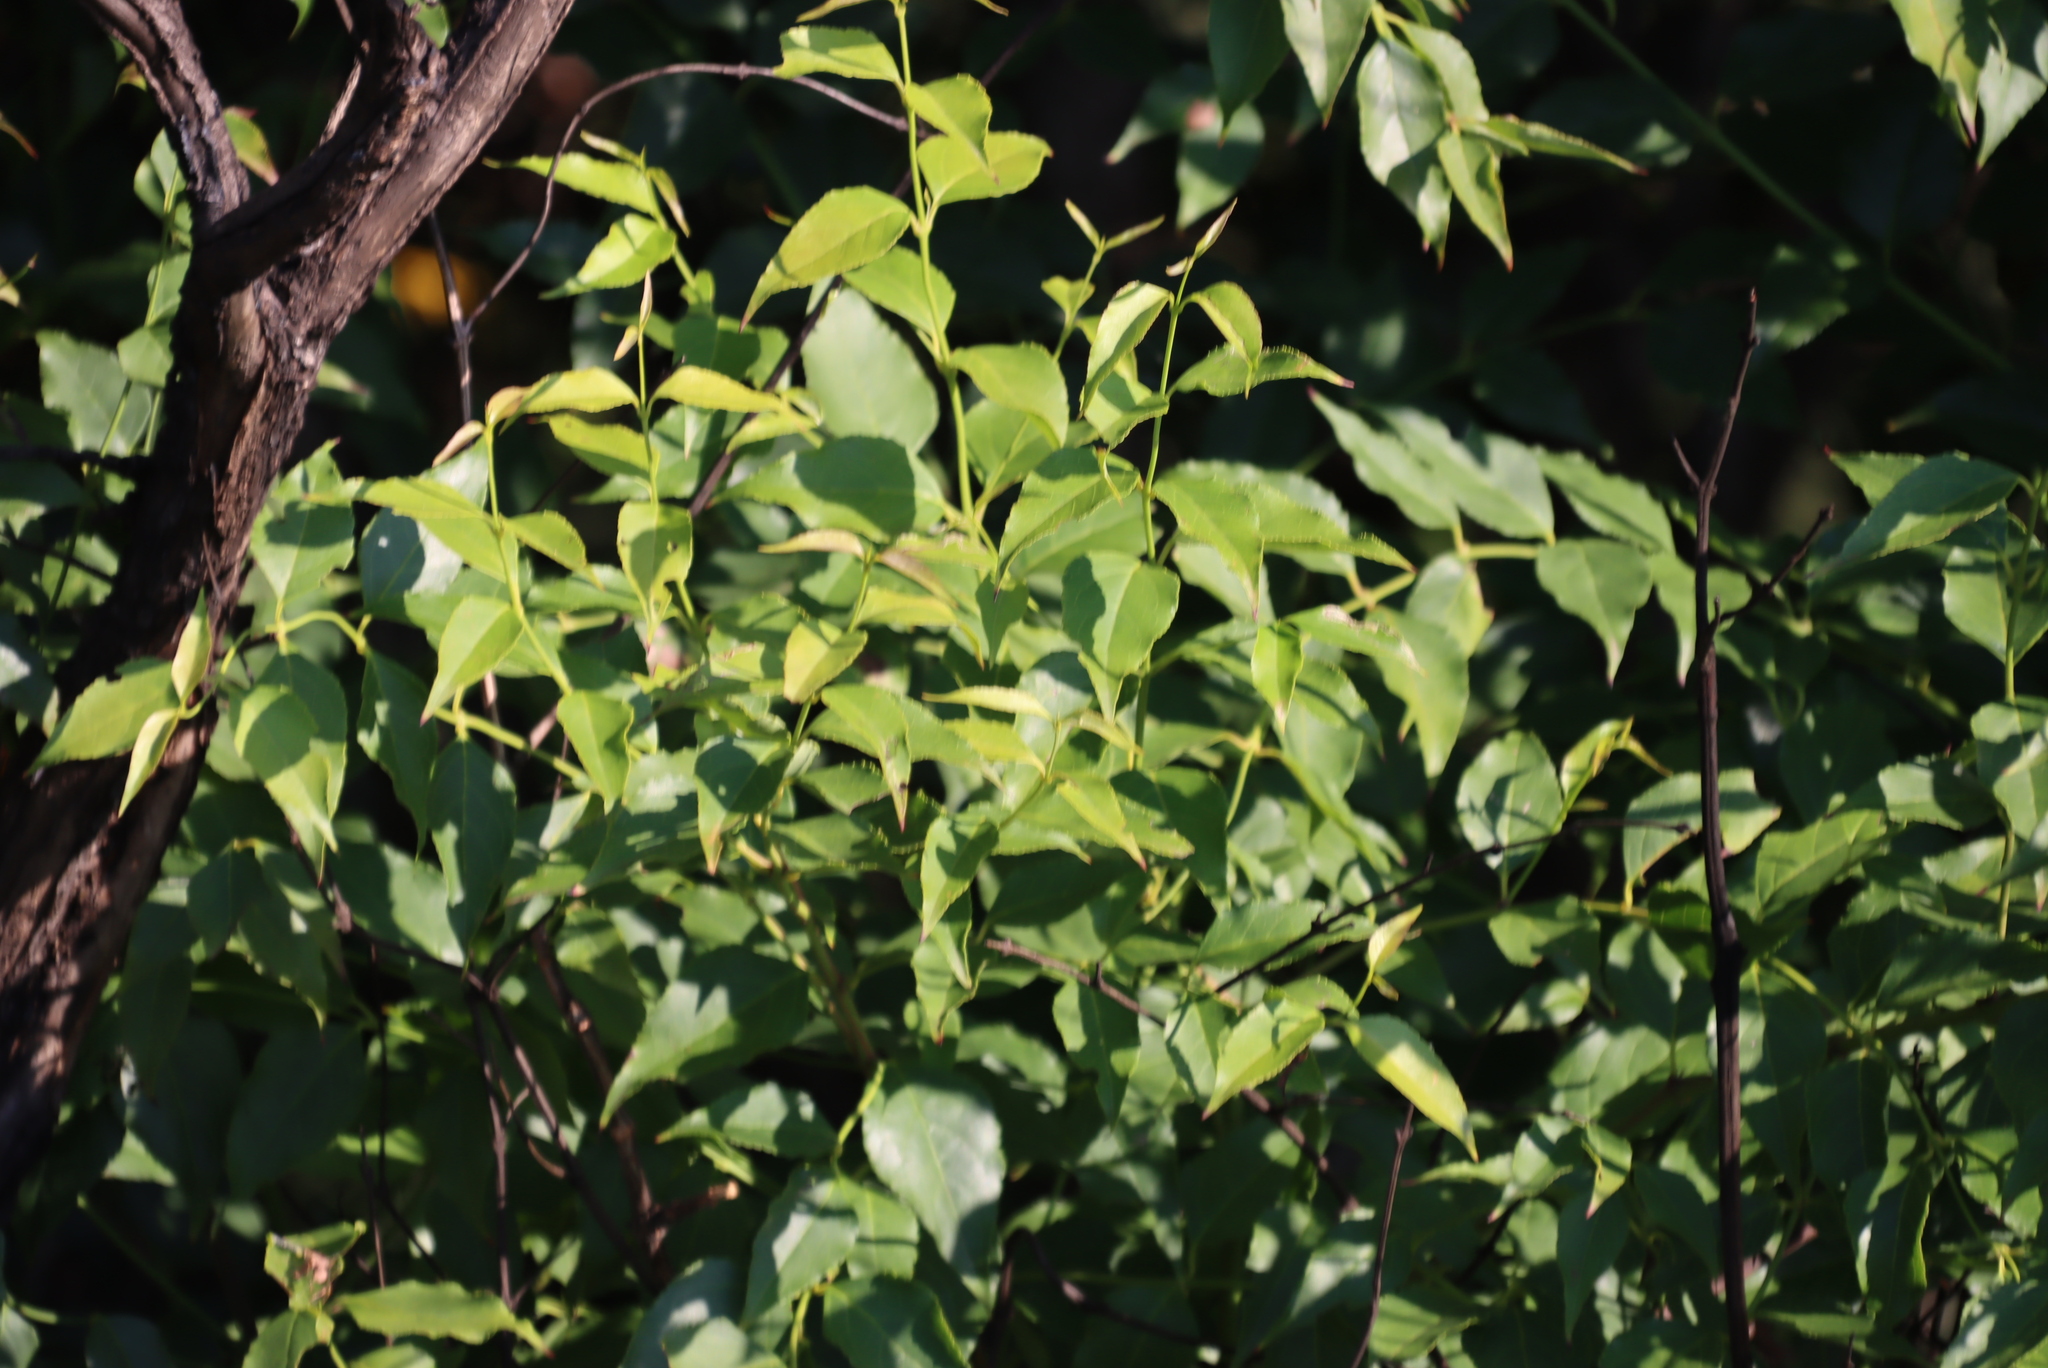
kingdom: Plantae
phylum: Tracheophyta
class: Magnoliopsida
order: Lamiales
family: Stilbaceae
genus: Halleria
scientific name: Halleria lucida
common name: Tree fuschia
